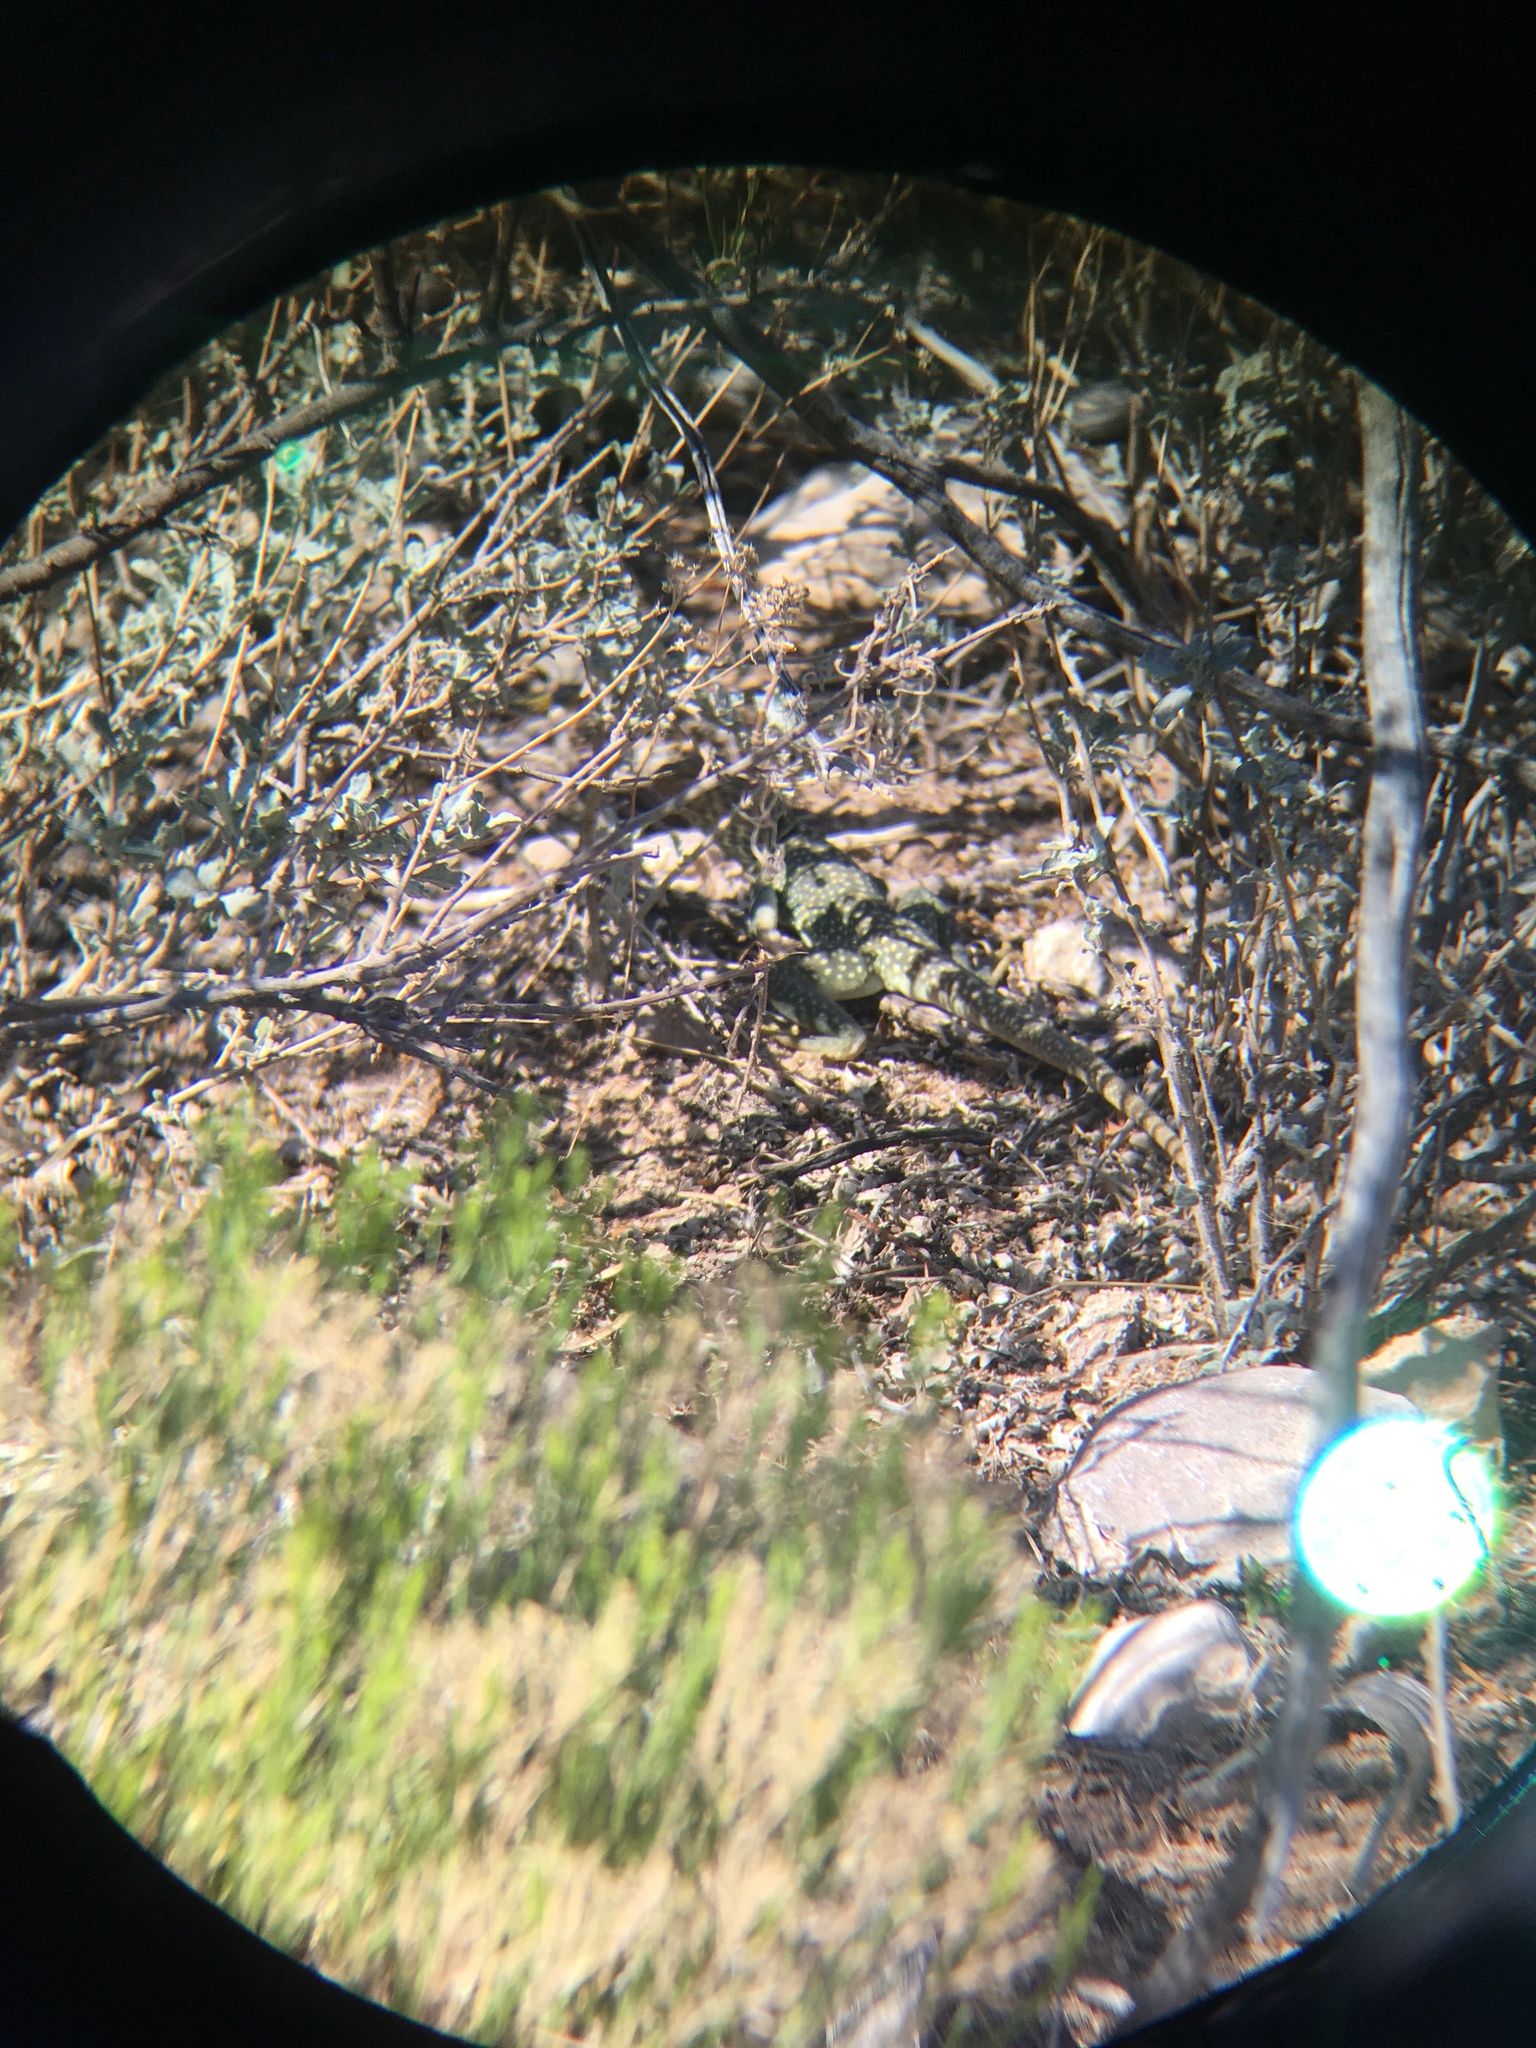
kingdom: Animalia
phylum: Chordata
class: Squamata
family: Crotaphytidae
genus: Crotaphytus
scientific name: Crotaphytus collaris
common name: Collared lizard
